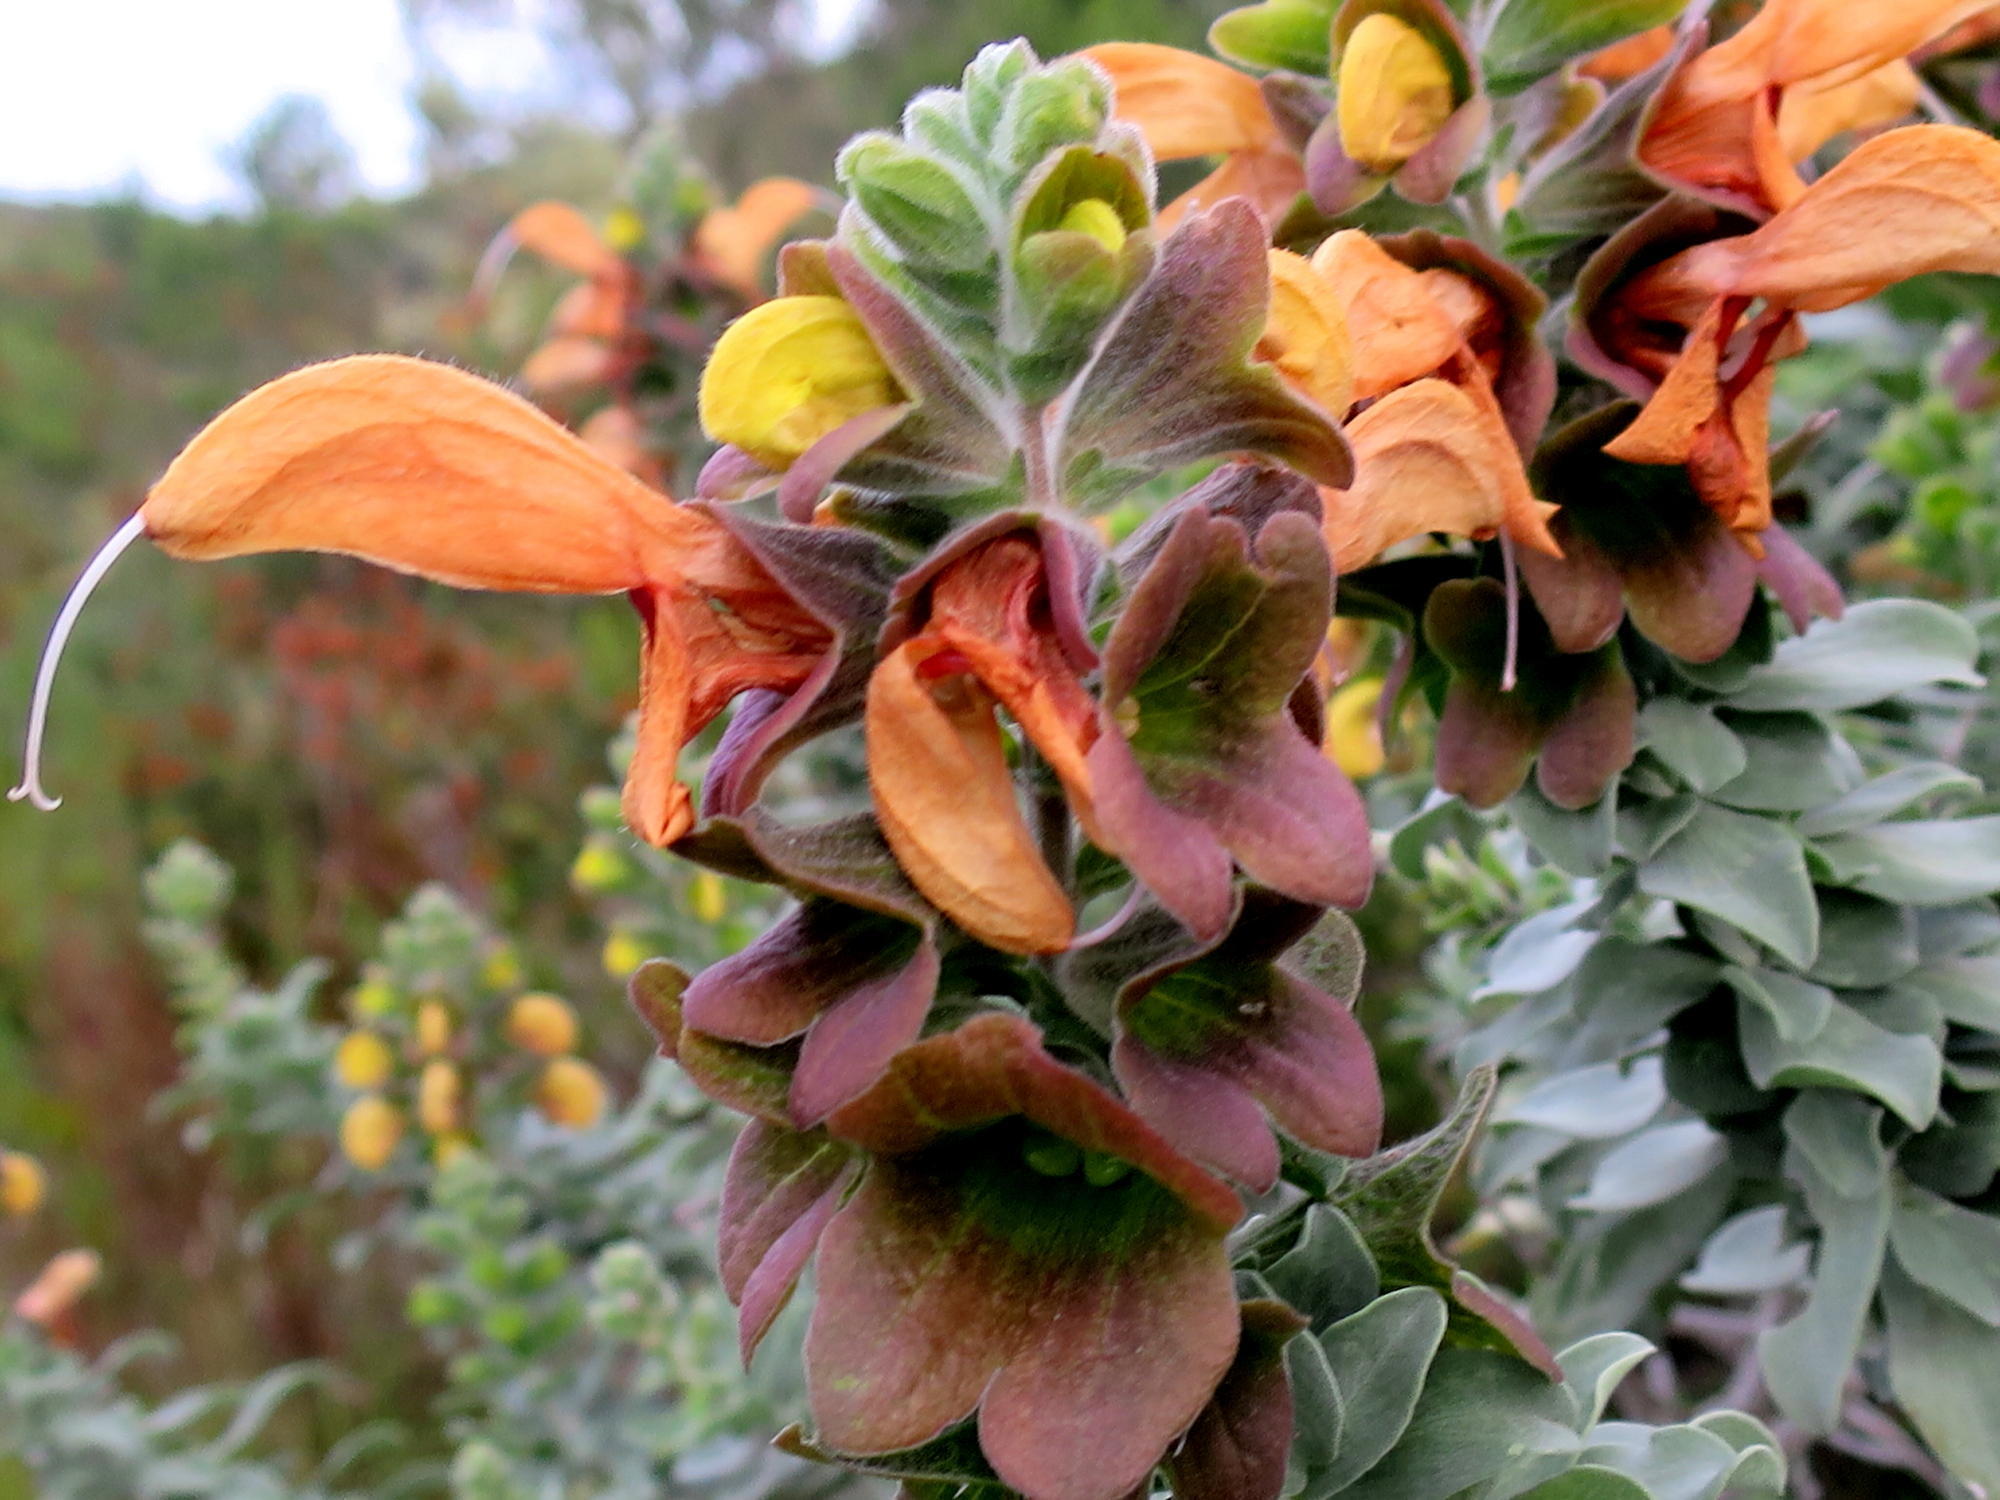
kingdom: Plantae
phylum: Tracheophyta
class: Magnoliopsida
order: Lamiales
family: Lamiaceae
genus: Salvia
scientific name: Salvia aurea
